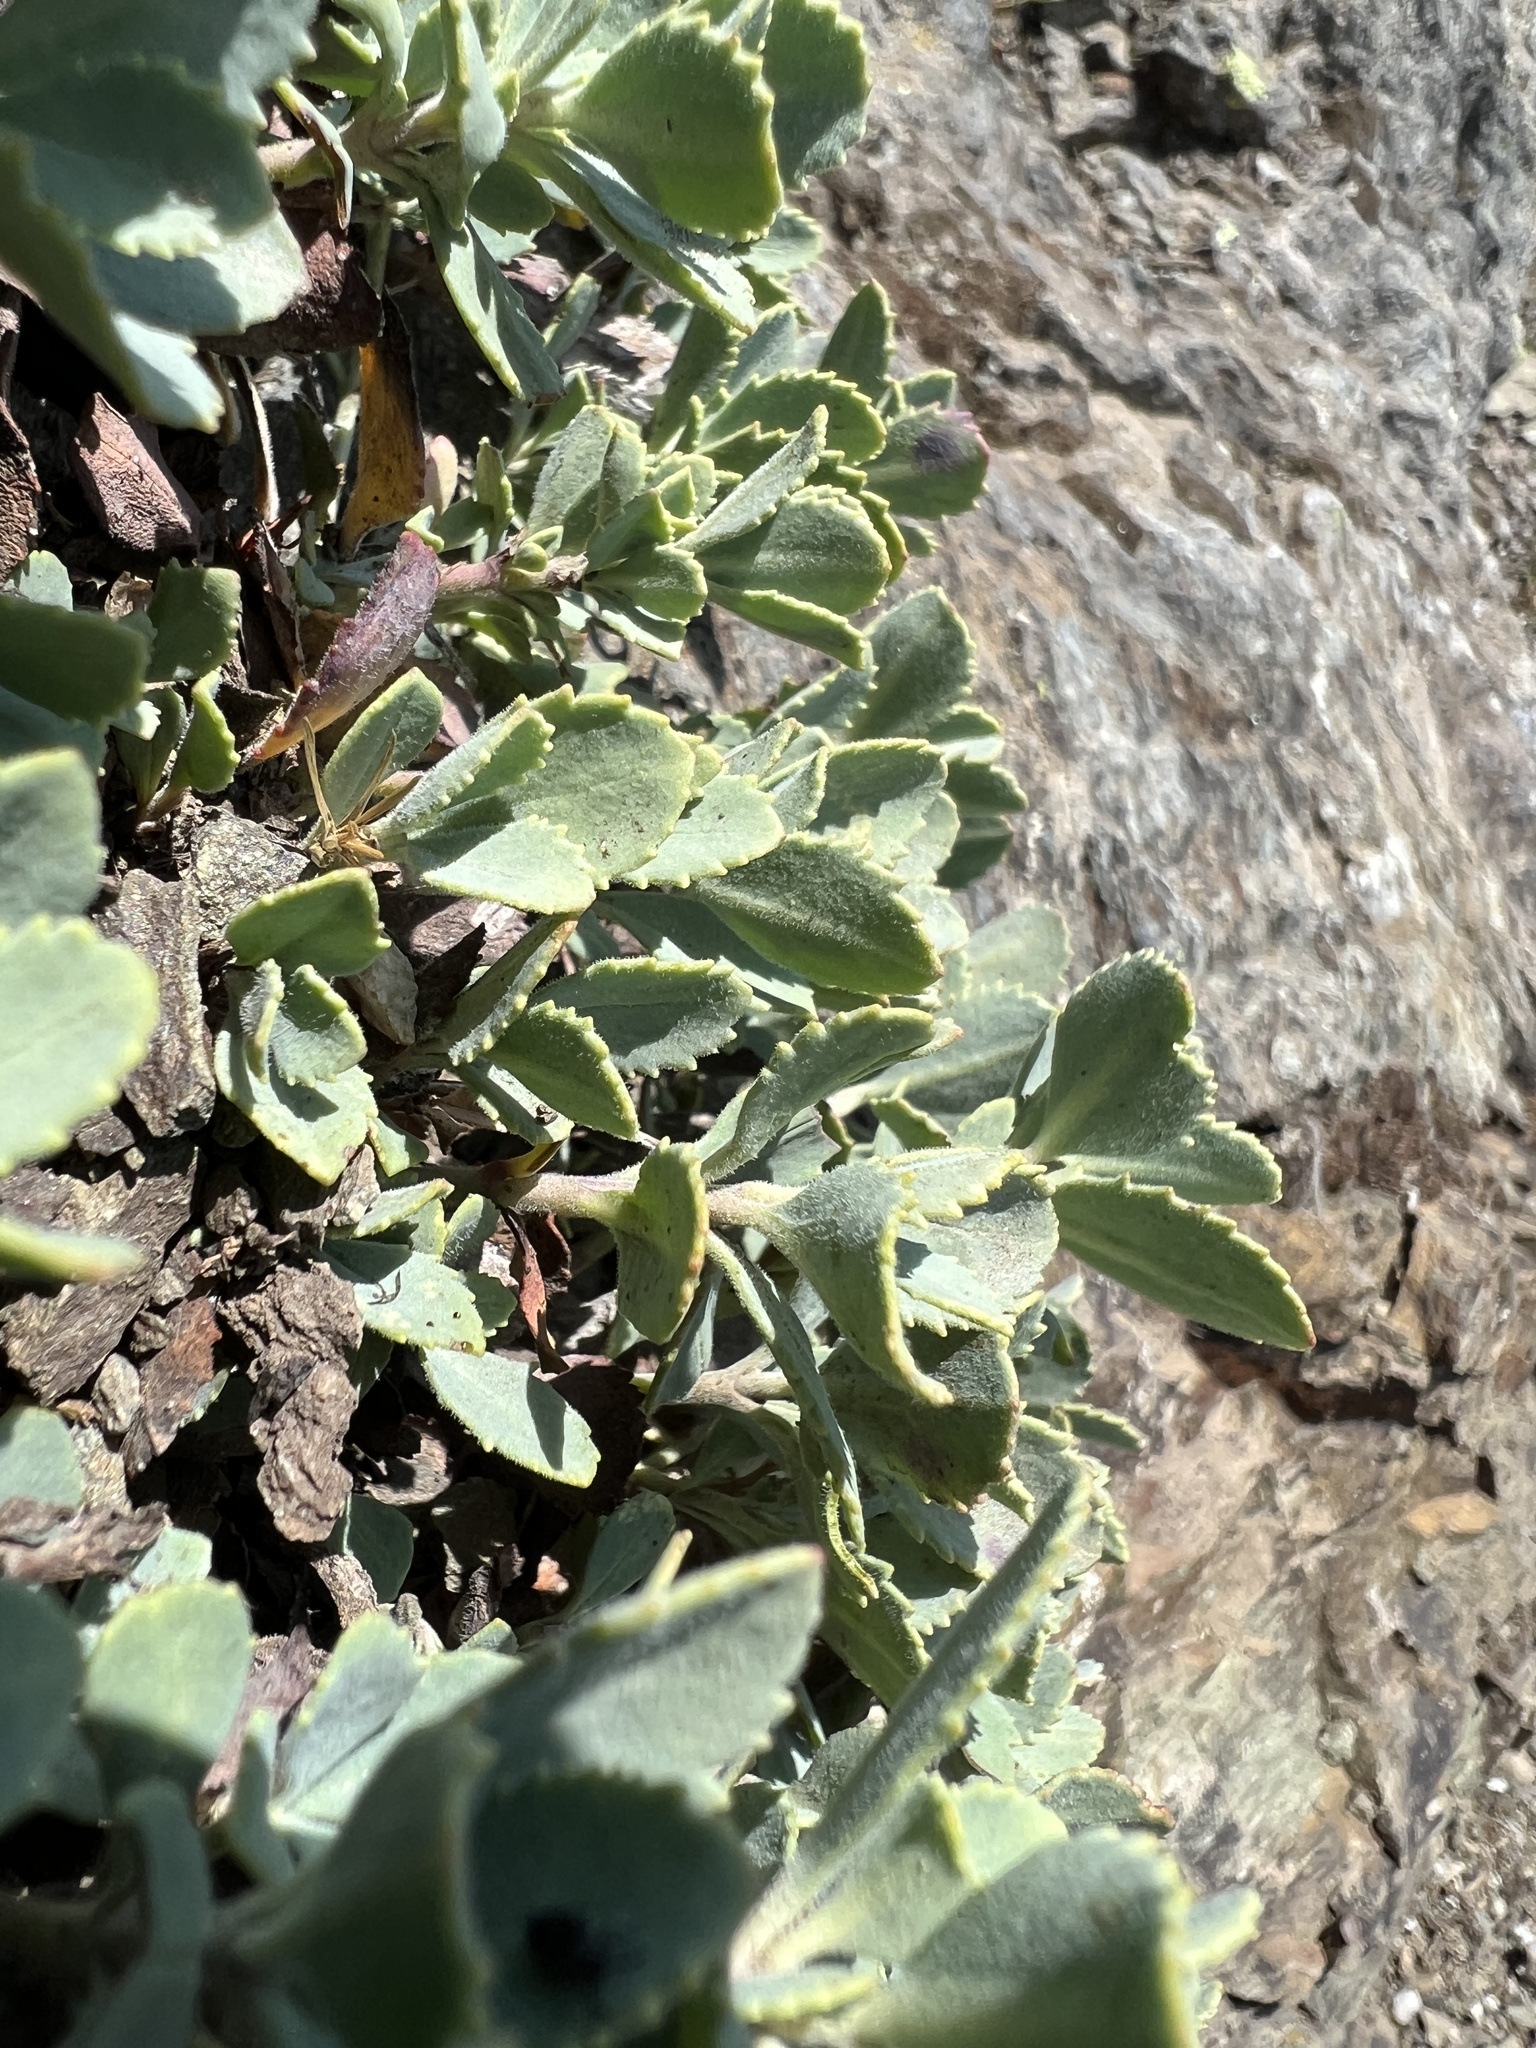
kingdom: Plantae
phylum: Tracheophyta
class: Magnoliopsida
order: Lamiales
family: Plantaginaceae
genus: Penstemon
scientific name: Penstemon rupicola
